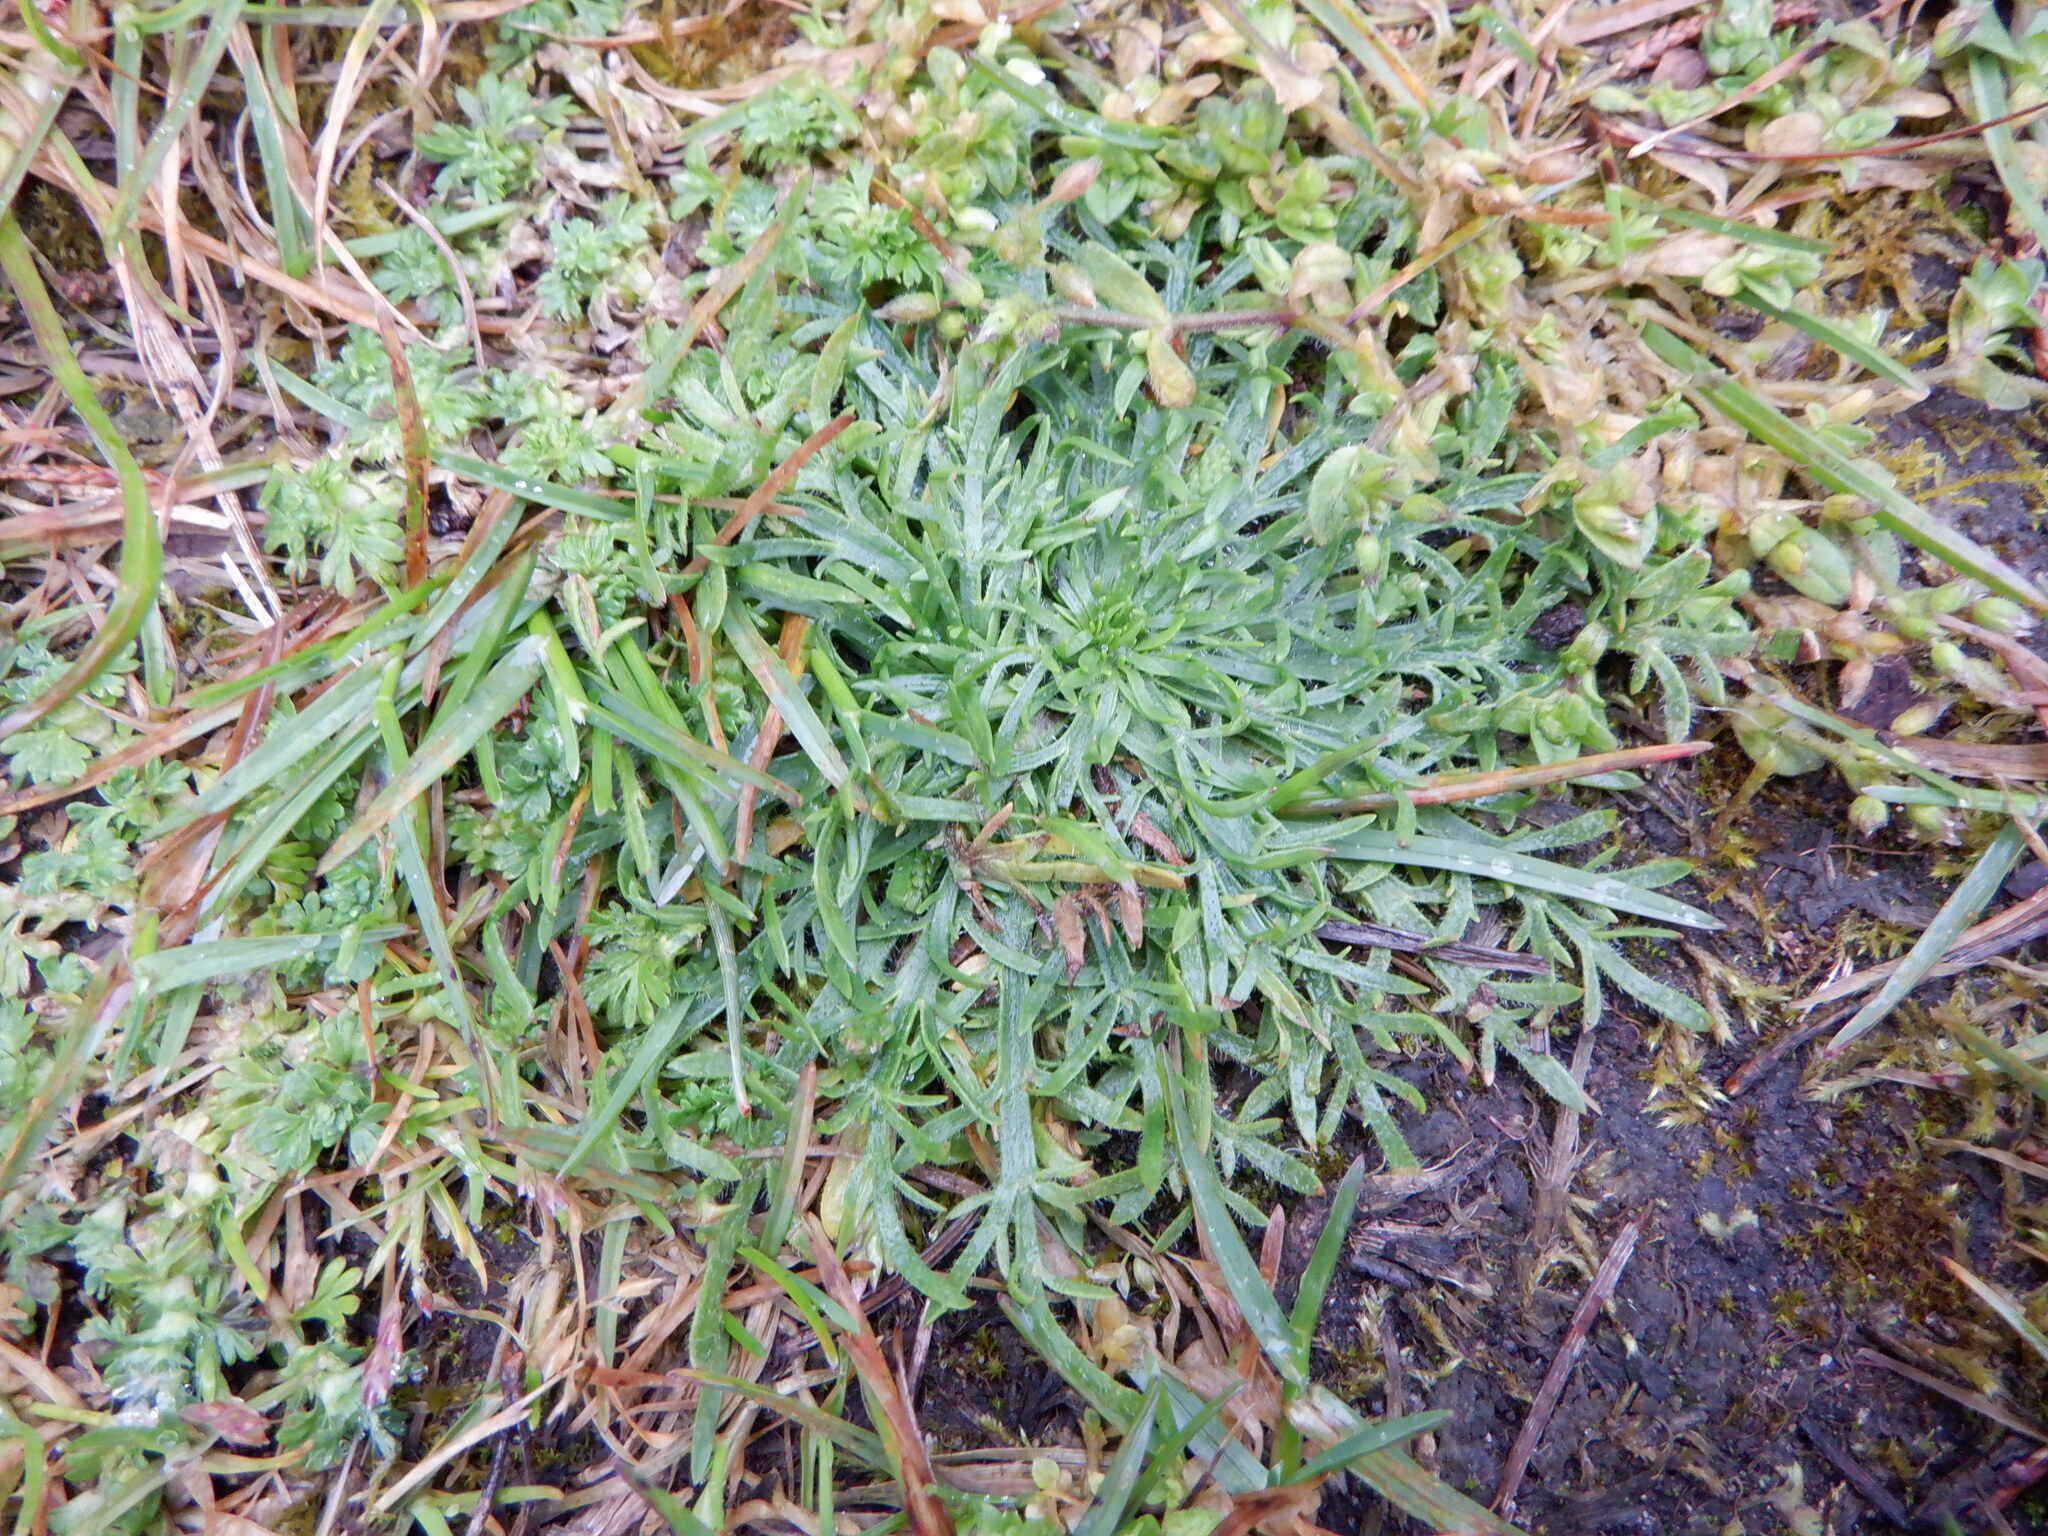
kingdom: Plantae
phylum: Tracheophyta
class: Magnoliopsida
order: Lamiales
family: Plantaginaceae
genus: Plantago
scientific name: Plantago coronopus
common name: Buck's-horn plantain
